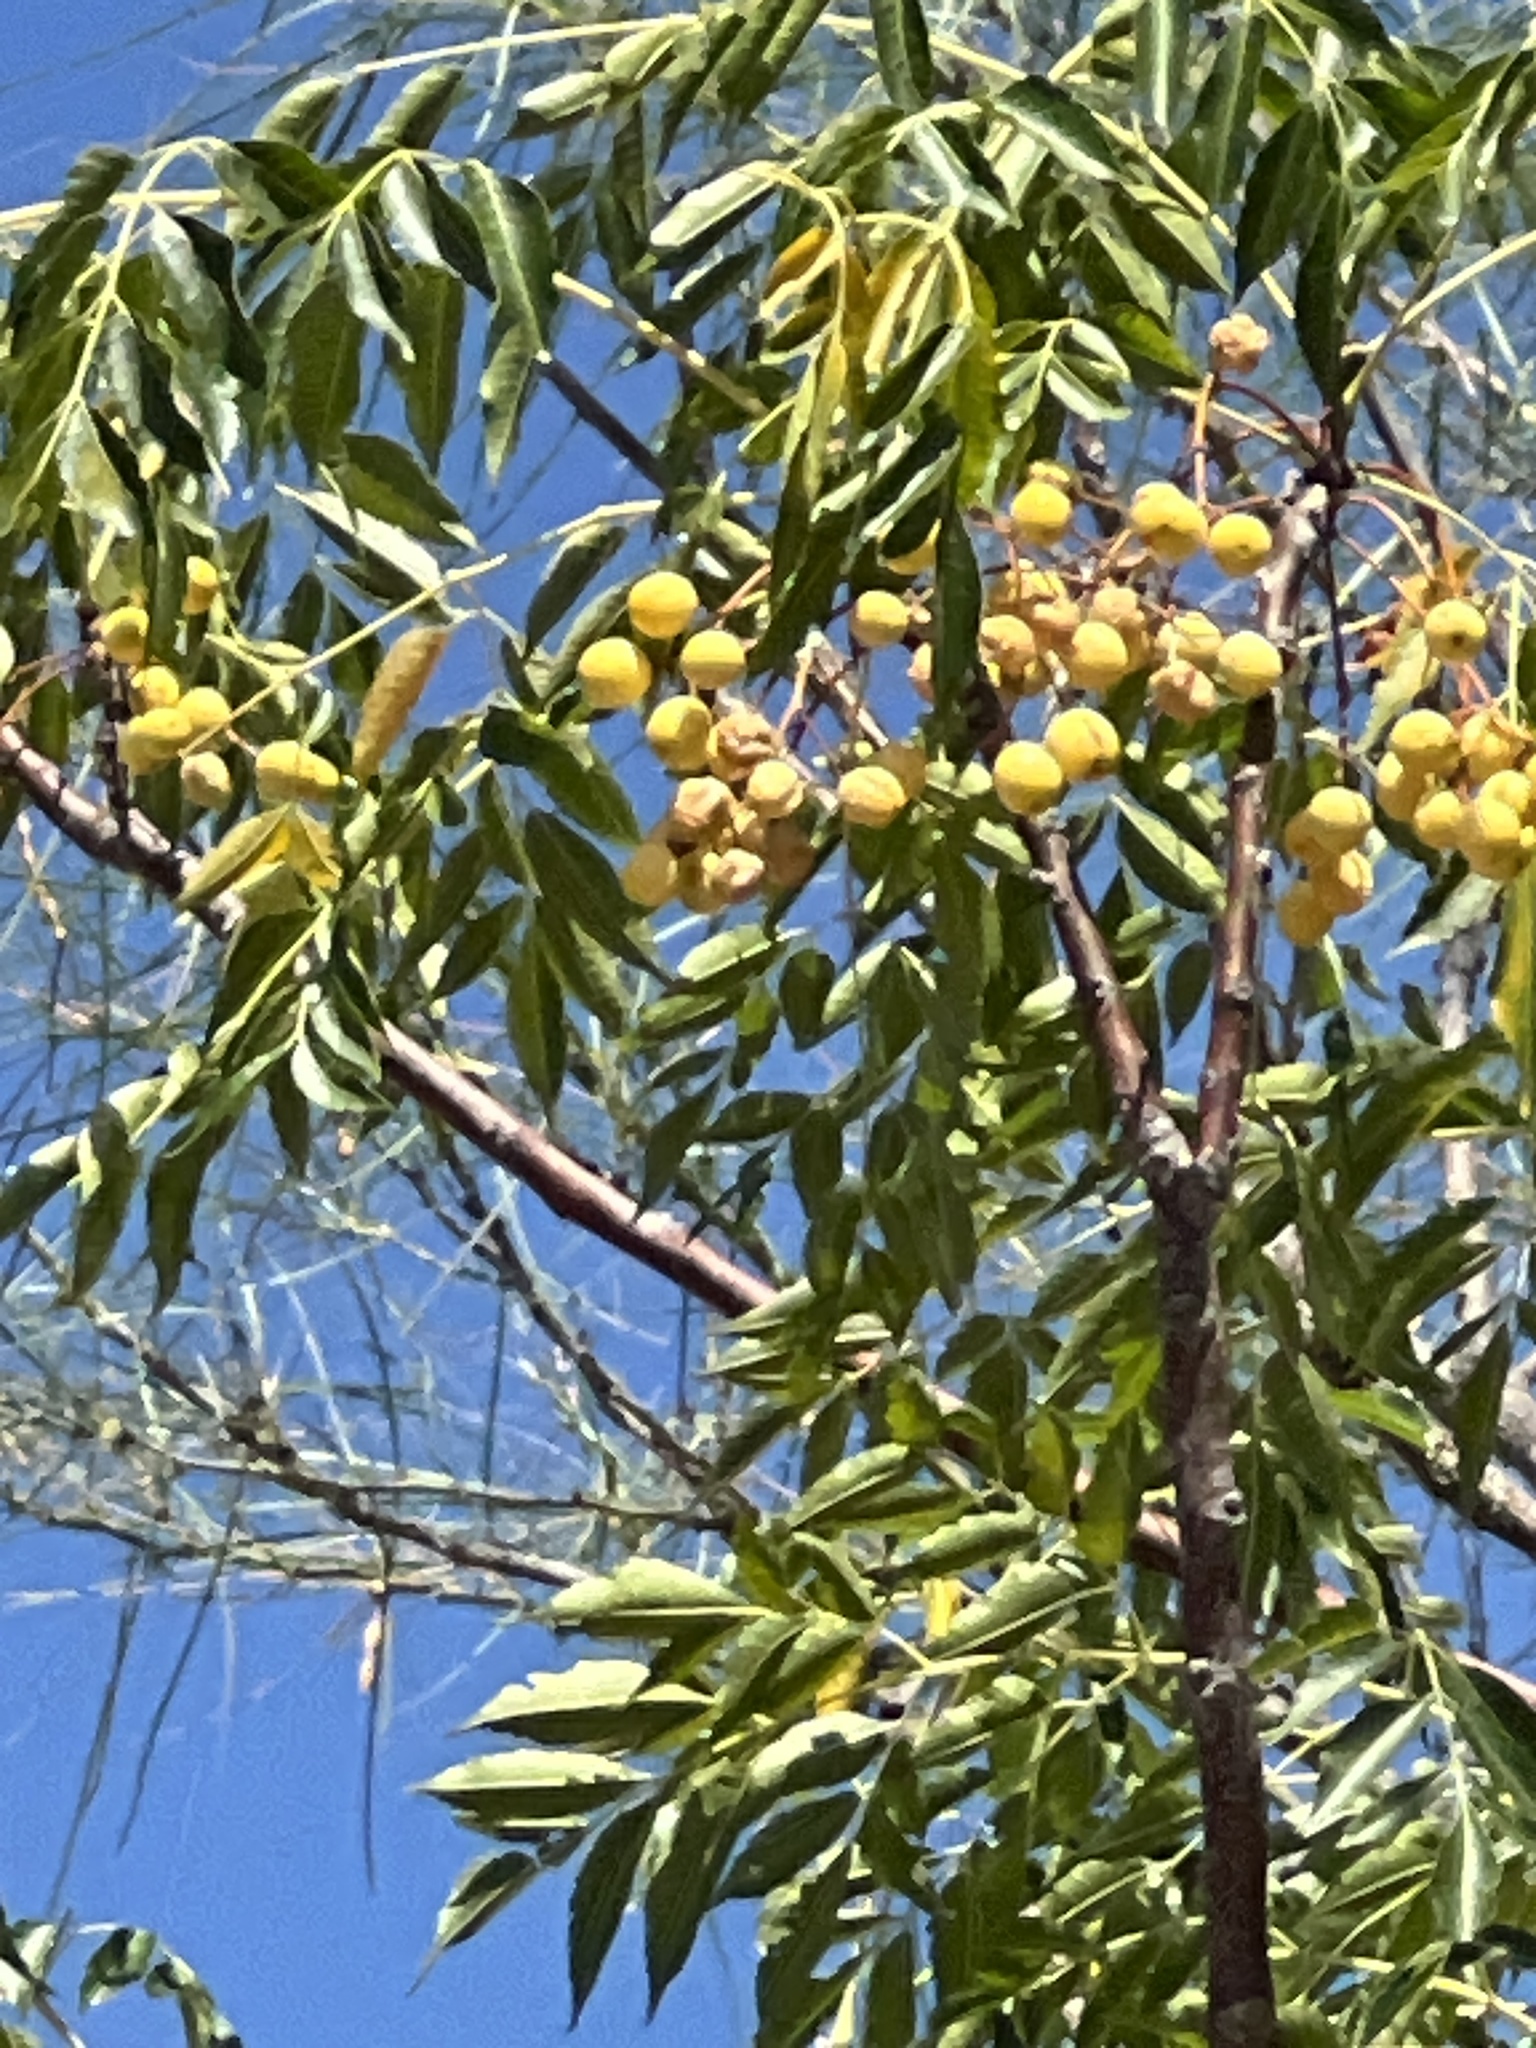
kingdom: Plantae
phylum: Tracheophyta
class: Magnoliopsida
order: Sapindales
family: Meliaceae
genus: Melia
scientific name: Melia azedarach
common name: Chinaberrytree
